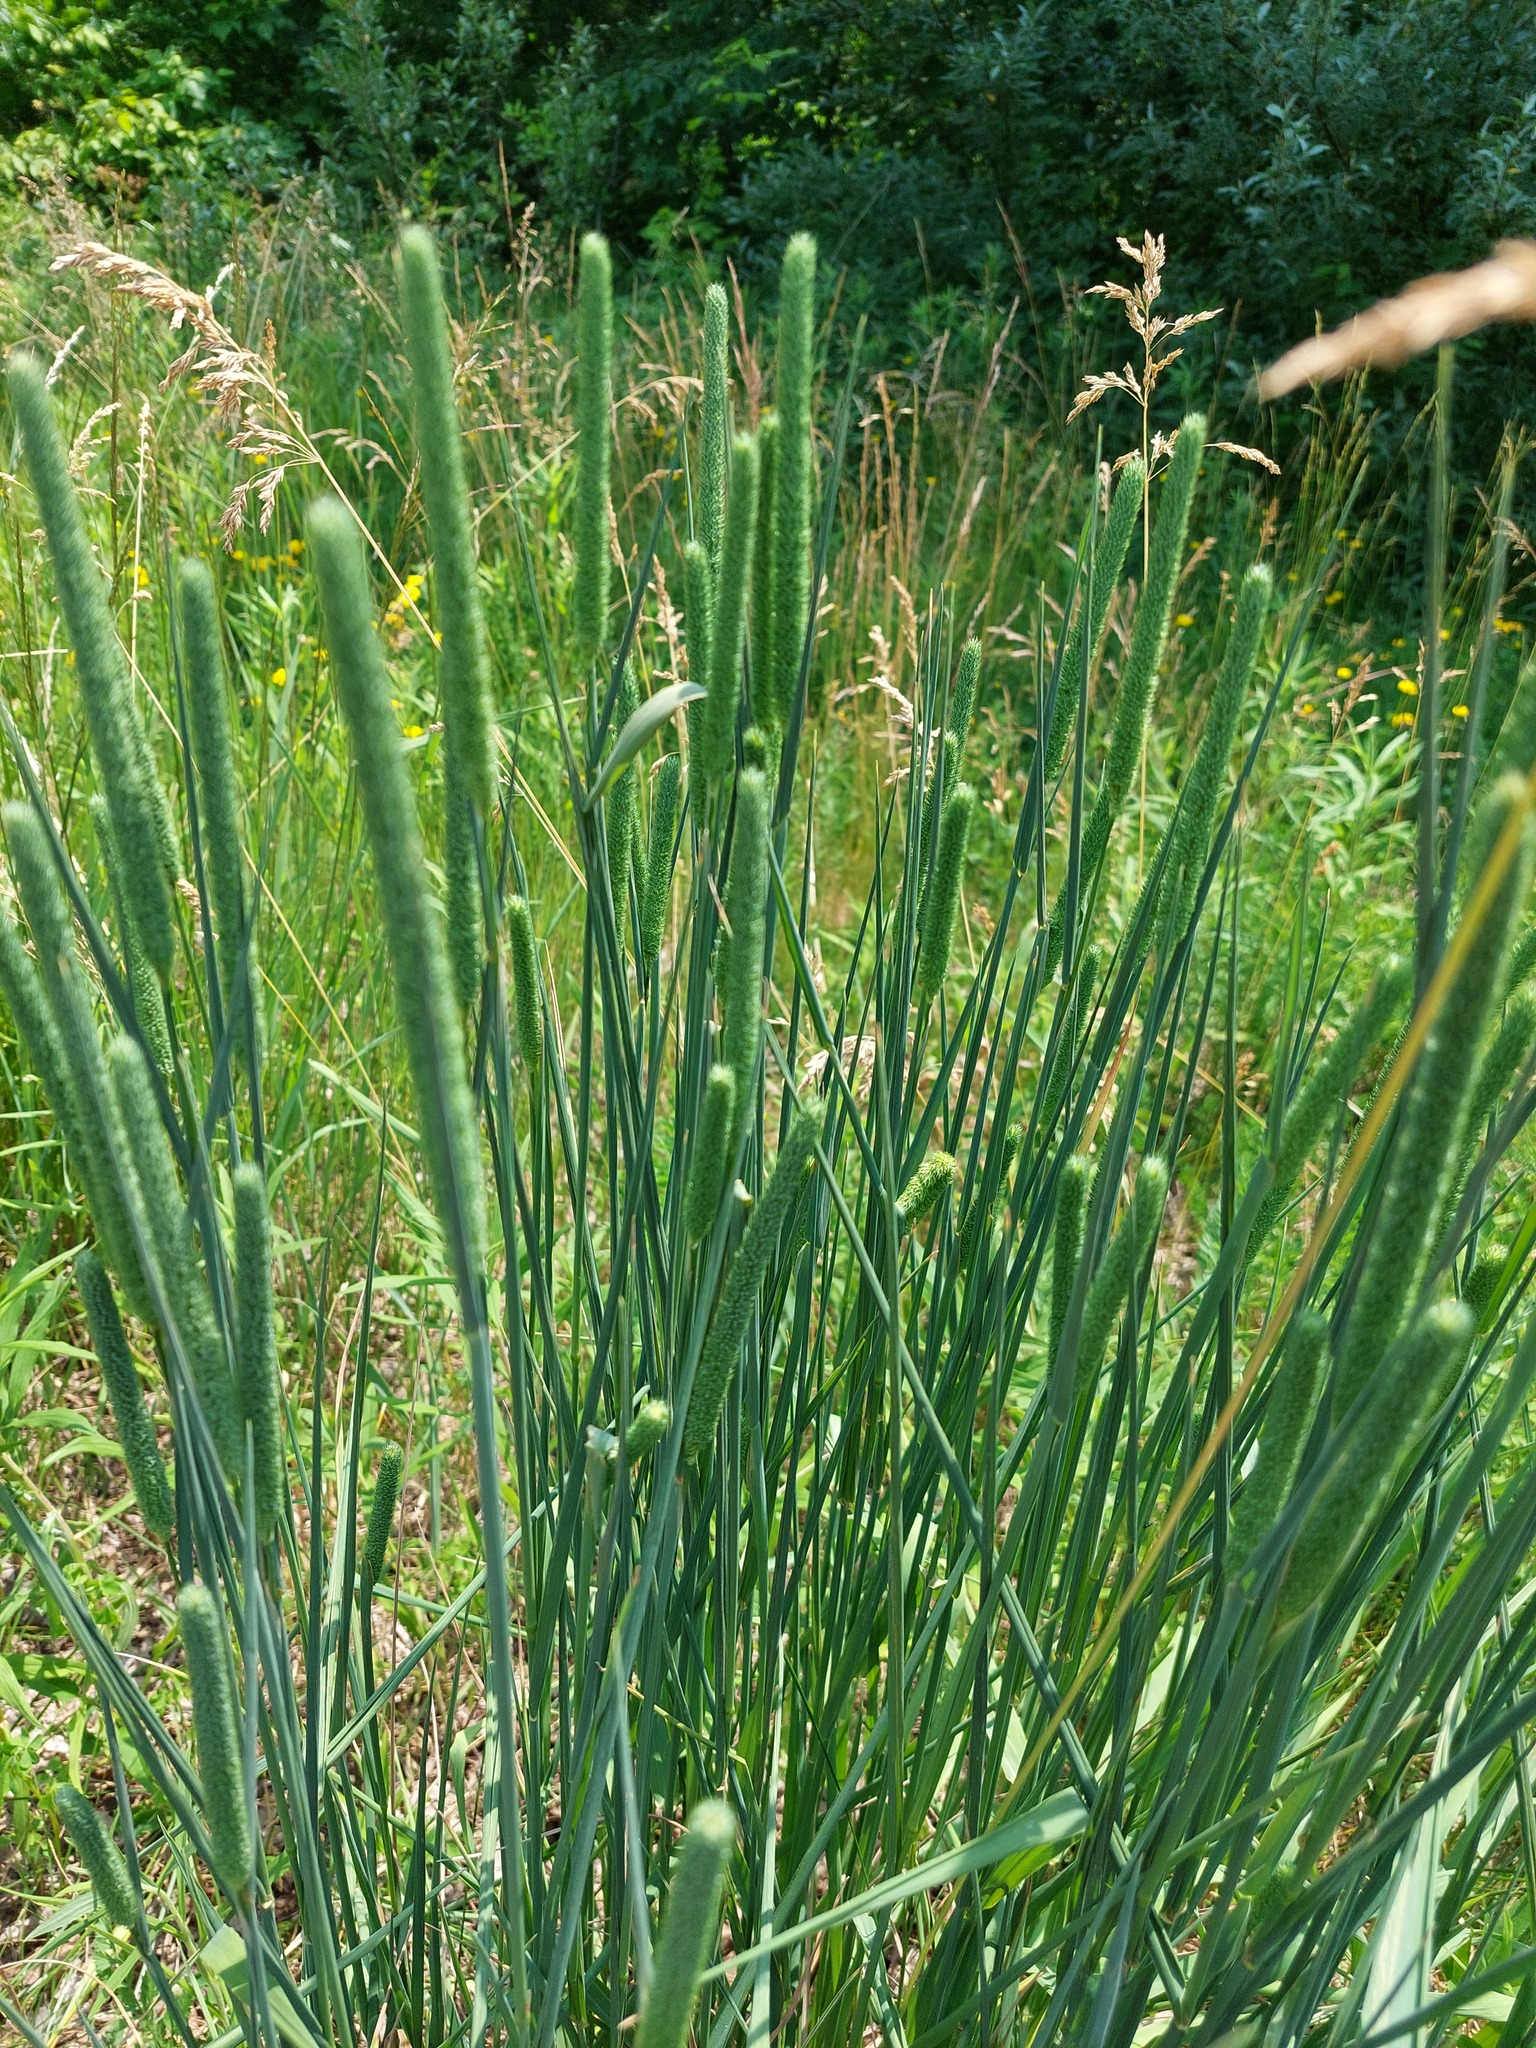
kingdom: Plantae
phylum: Tracheophyta
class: Liliopsida
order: Poales
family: Poaceae
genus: Phleum
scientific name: Phleum pratense
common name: Timothy grass
